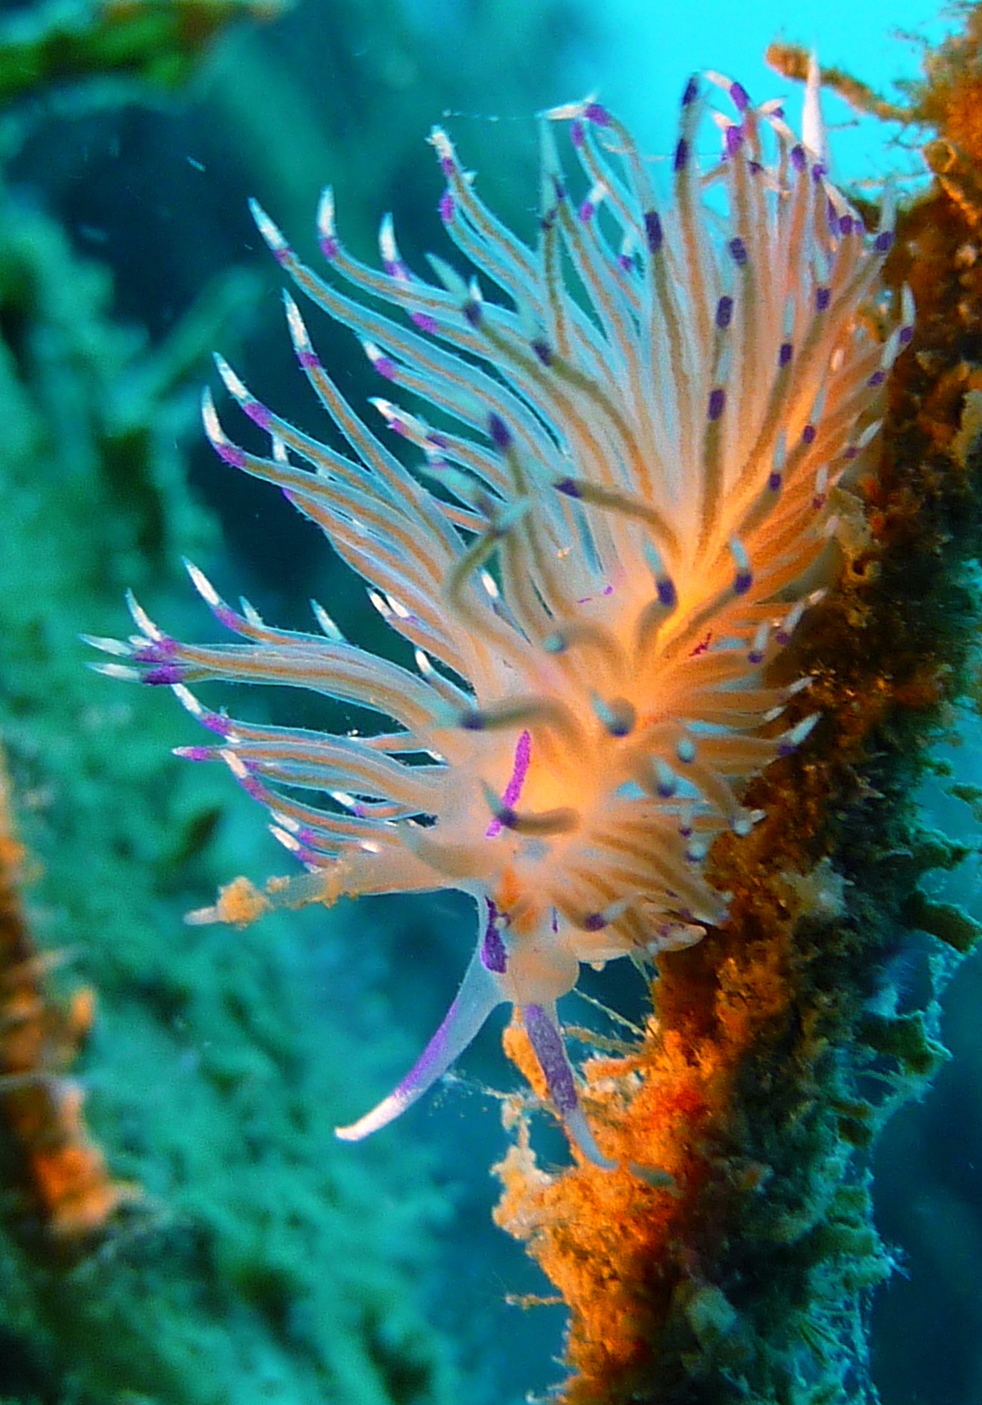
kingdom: Animalia
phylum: Mollusca
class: Gastropoda
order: Nudibranchia
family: Unidentiidae
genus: Unidentia
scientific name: Unidentia aliciae
